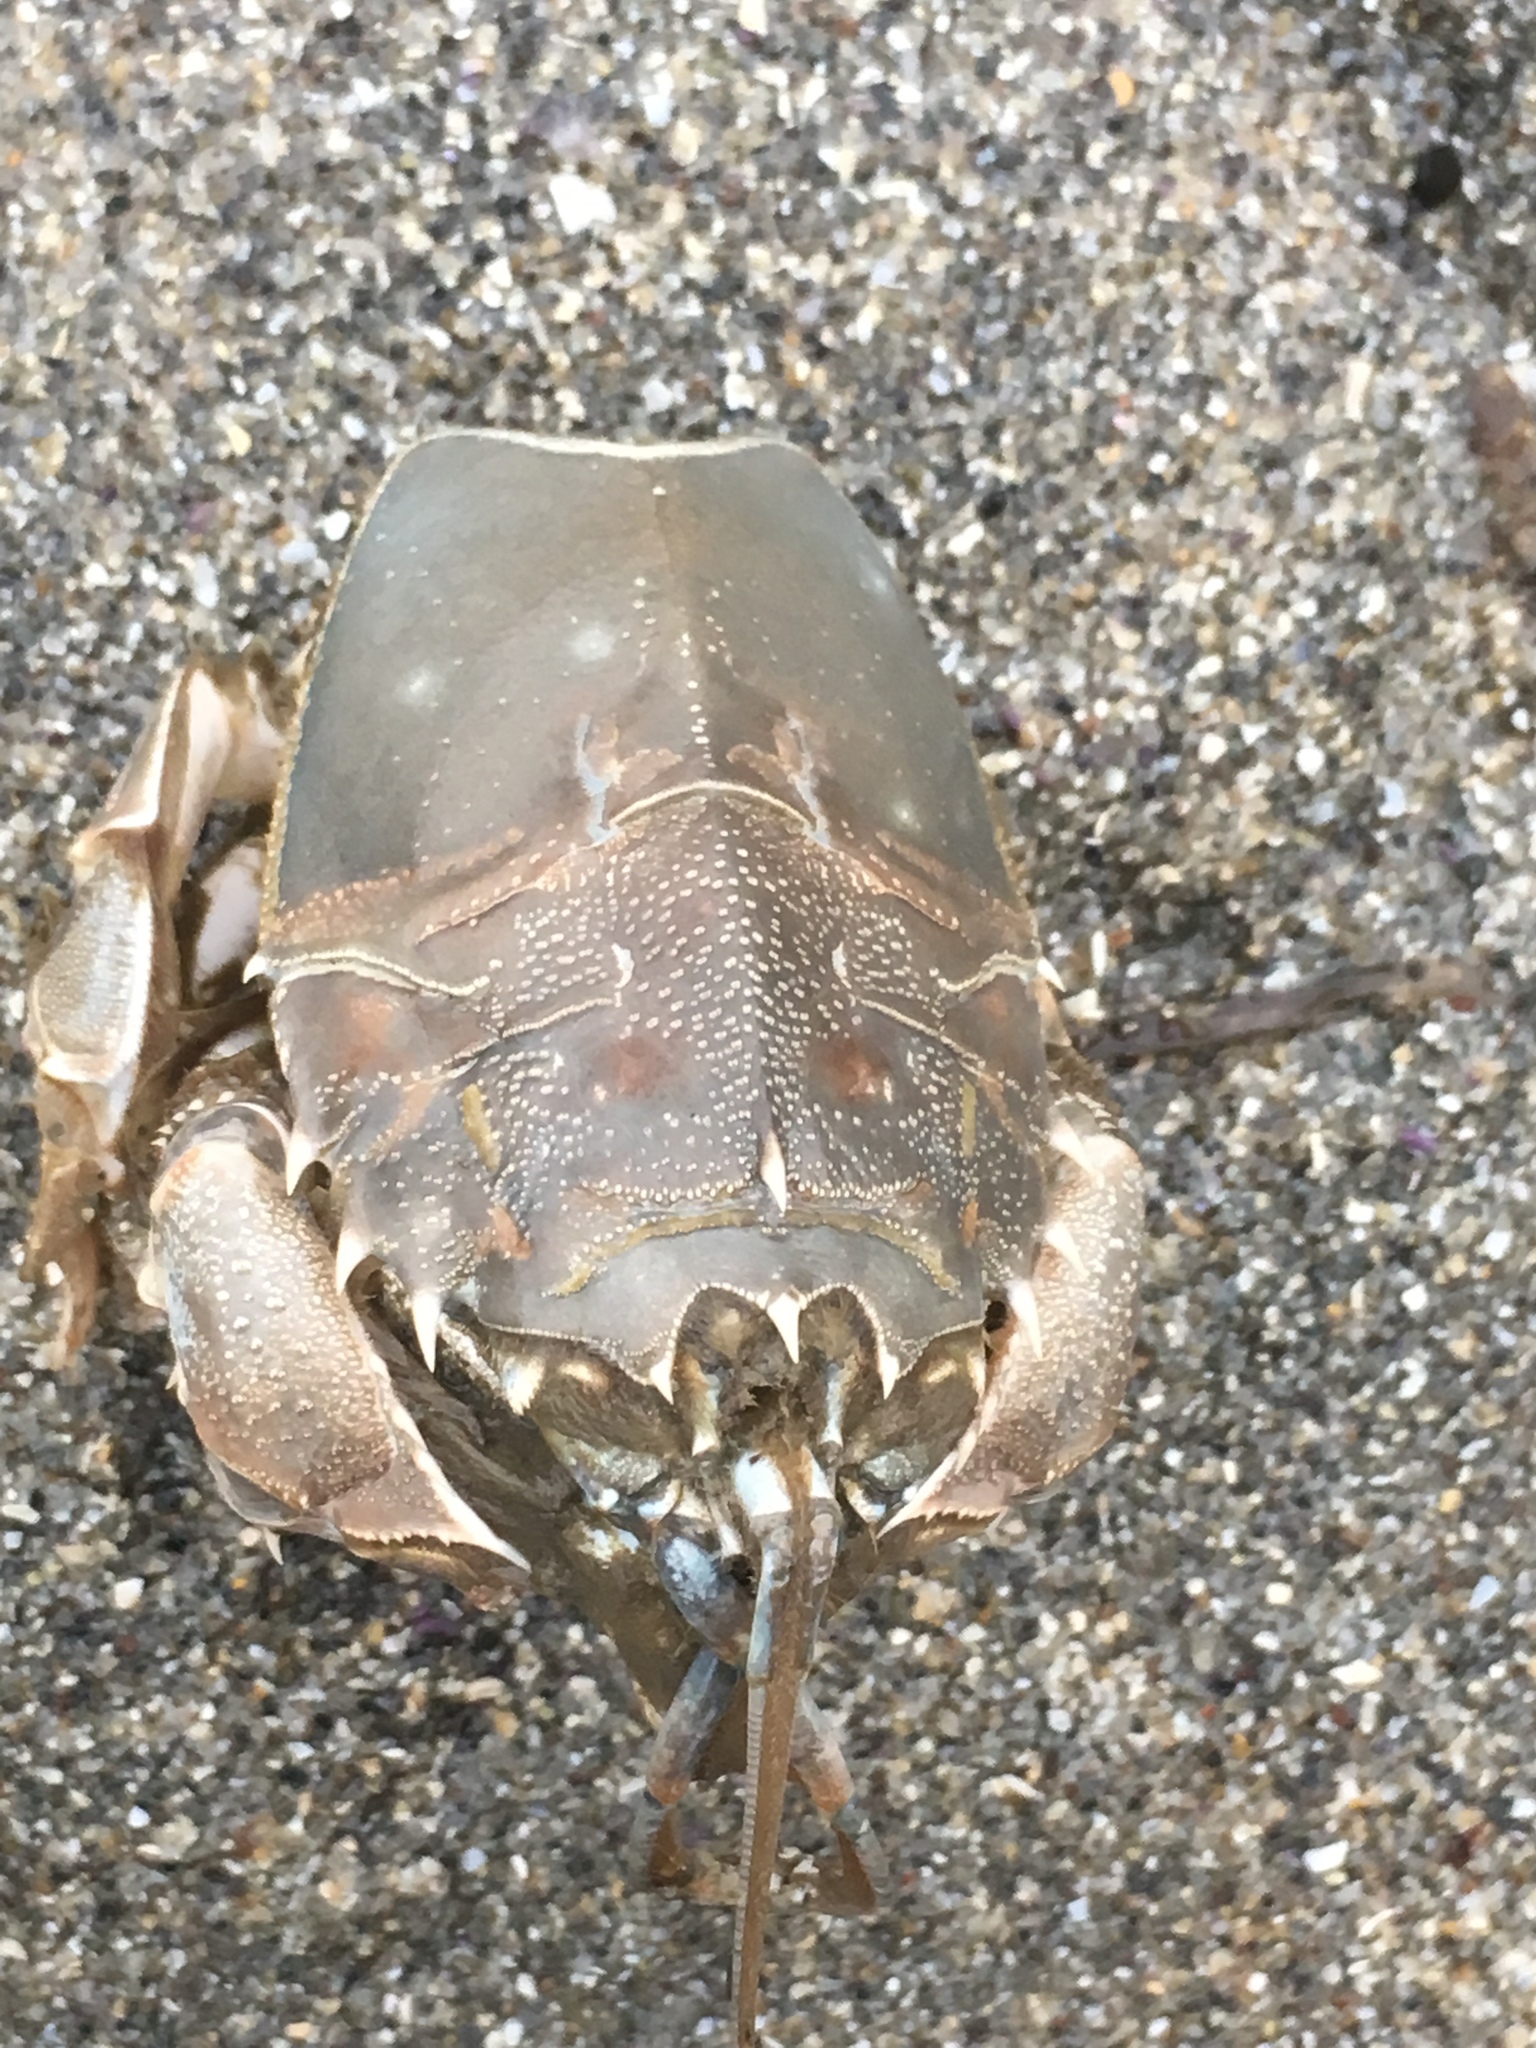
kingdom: Animalia
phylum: Arthropoda
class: Malacostraca
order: Decapoda
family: Blepharipodidae
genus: Blepharipoda
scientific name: Blepharipoda occidentalis
